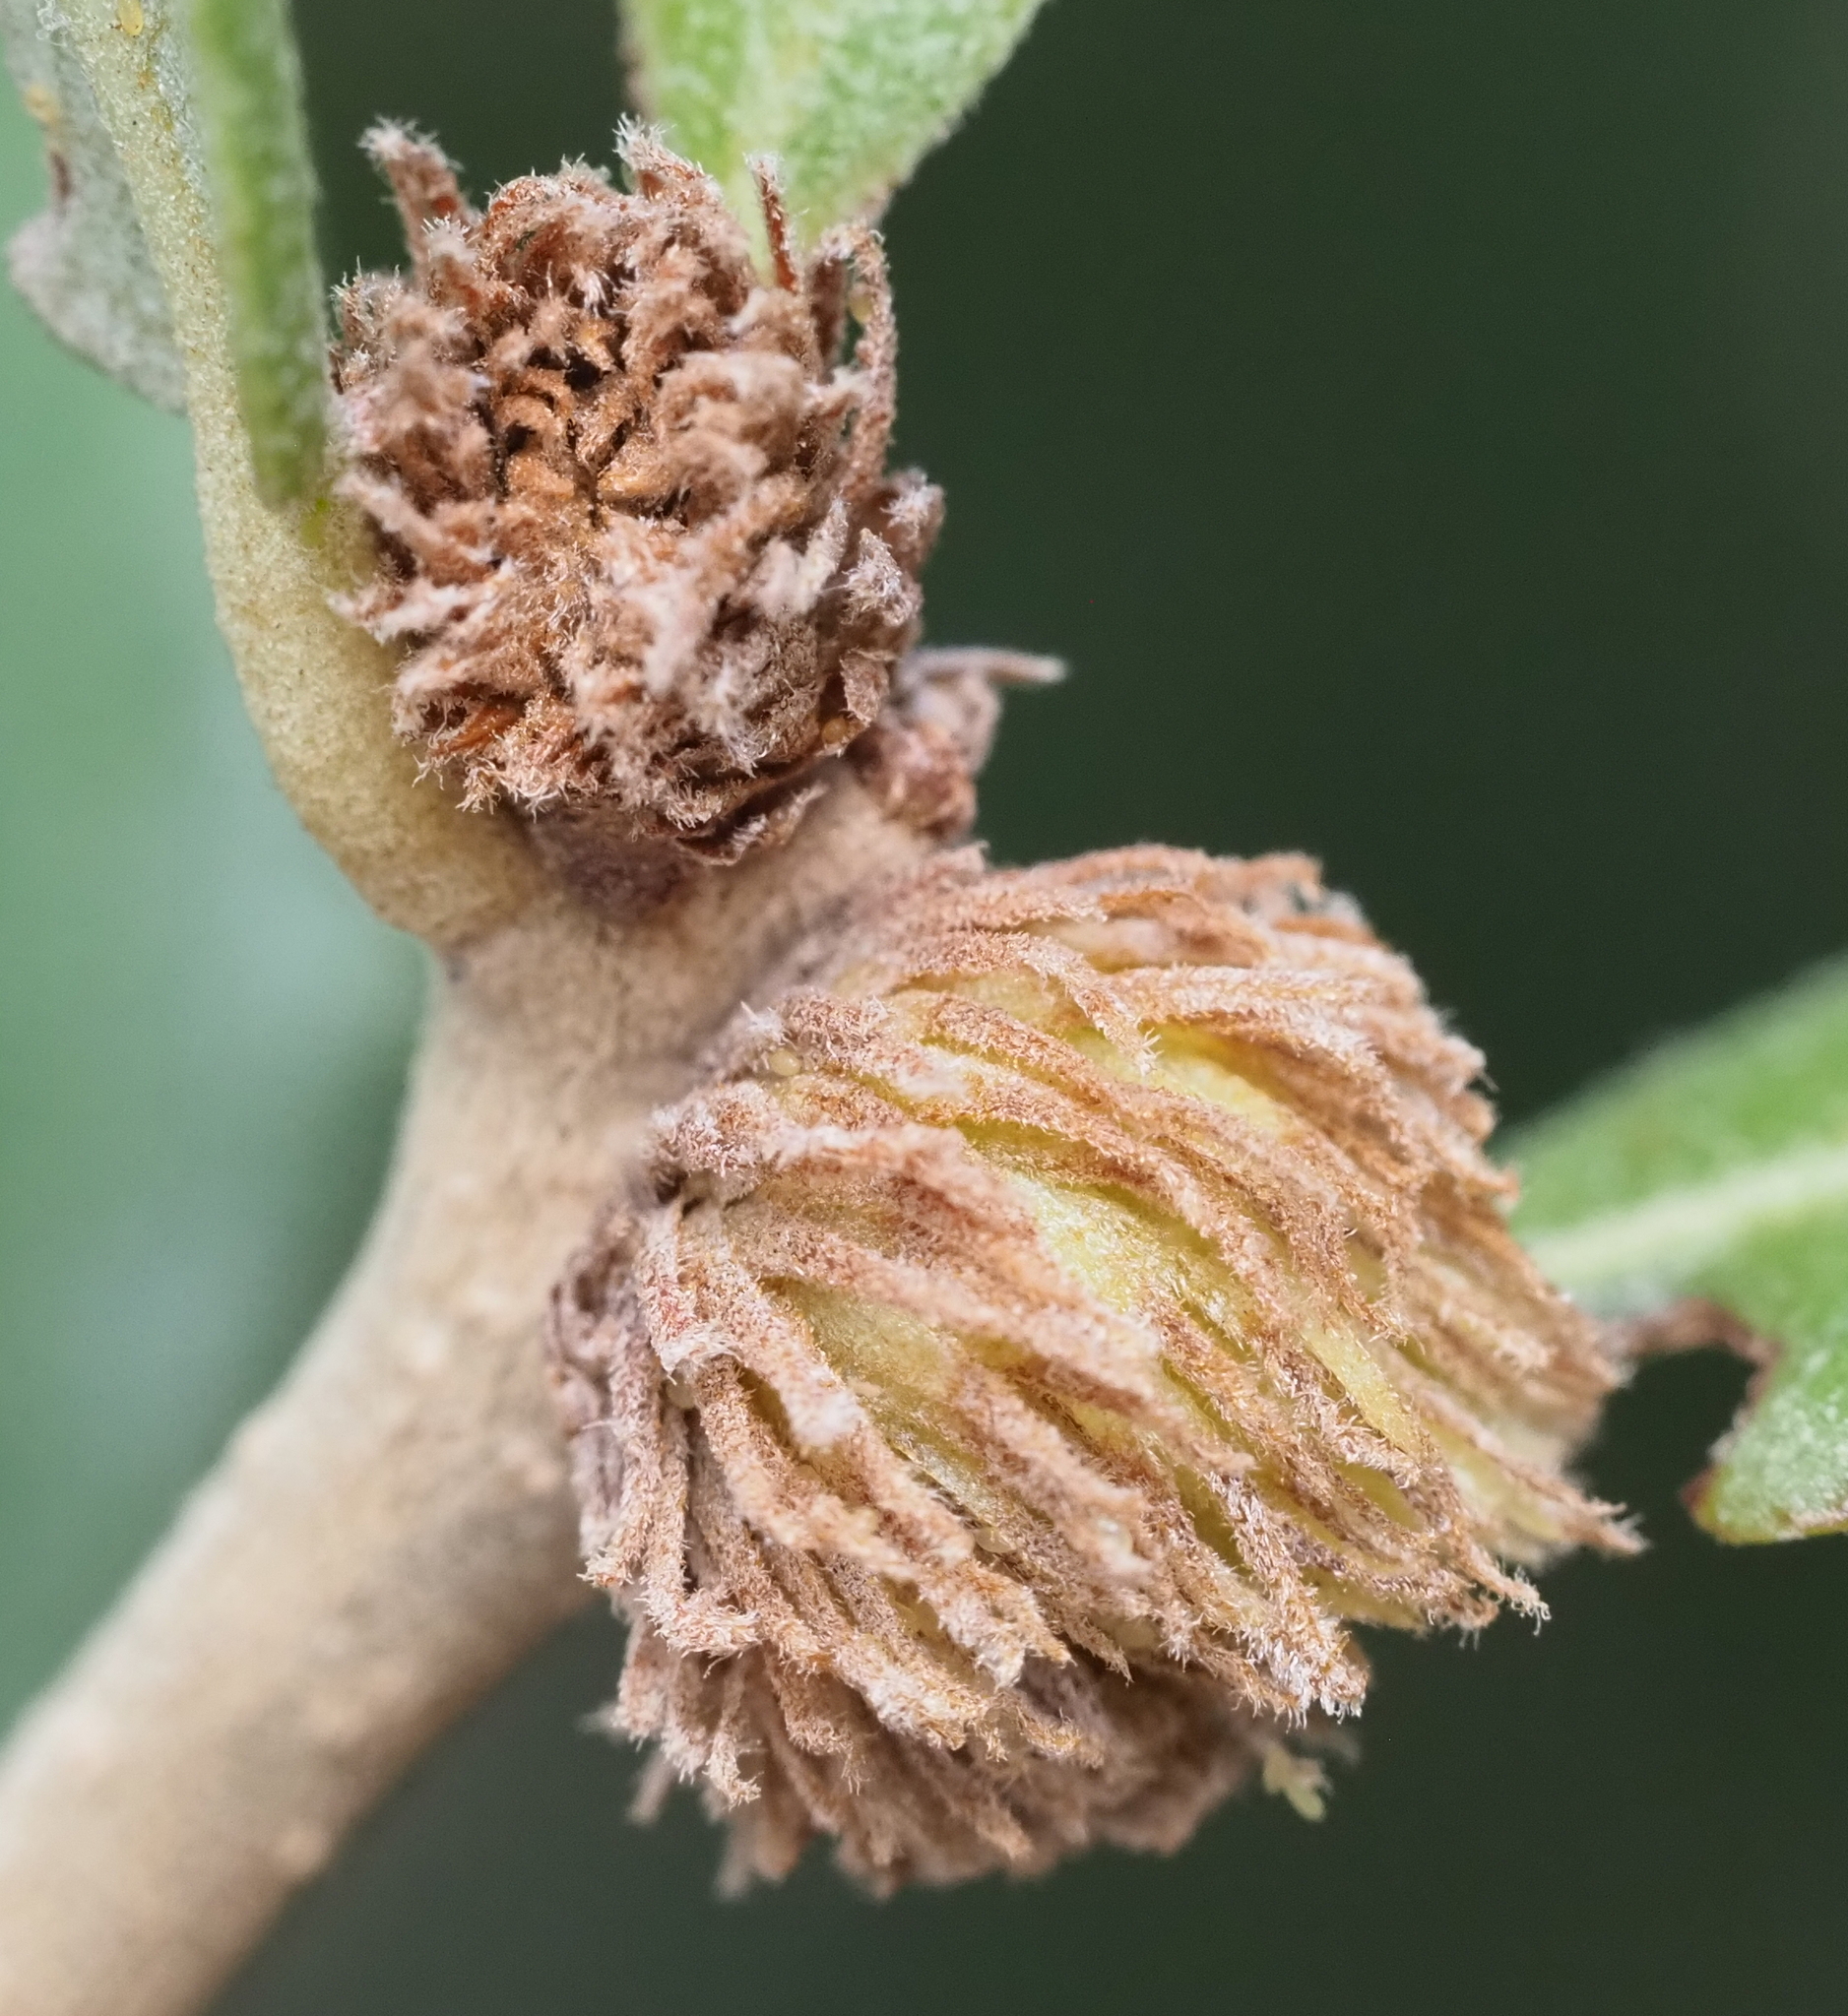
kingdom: Animalia
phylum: Arthropoda
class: Insecta
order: Hymenoptera
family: Cynipidae
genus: Andricus
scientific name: Andricus quercusfoliatus
